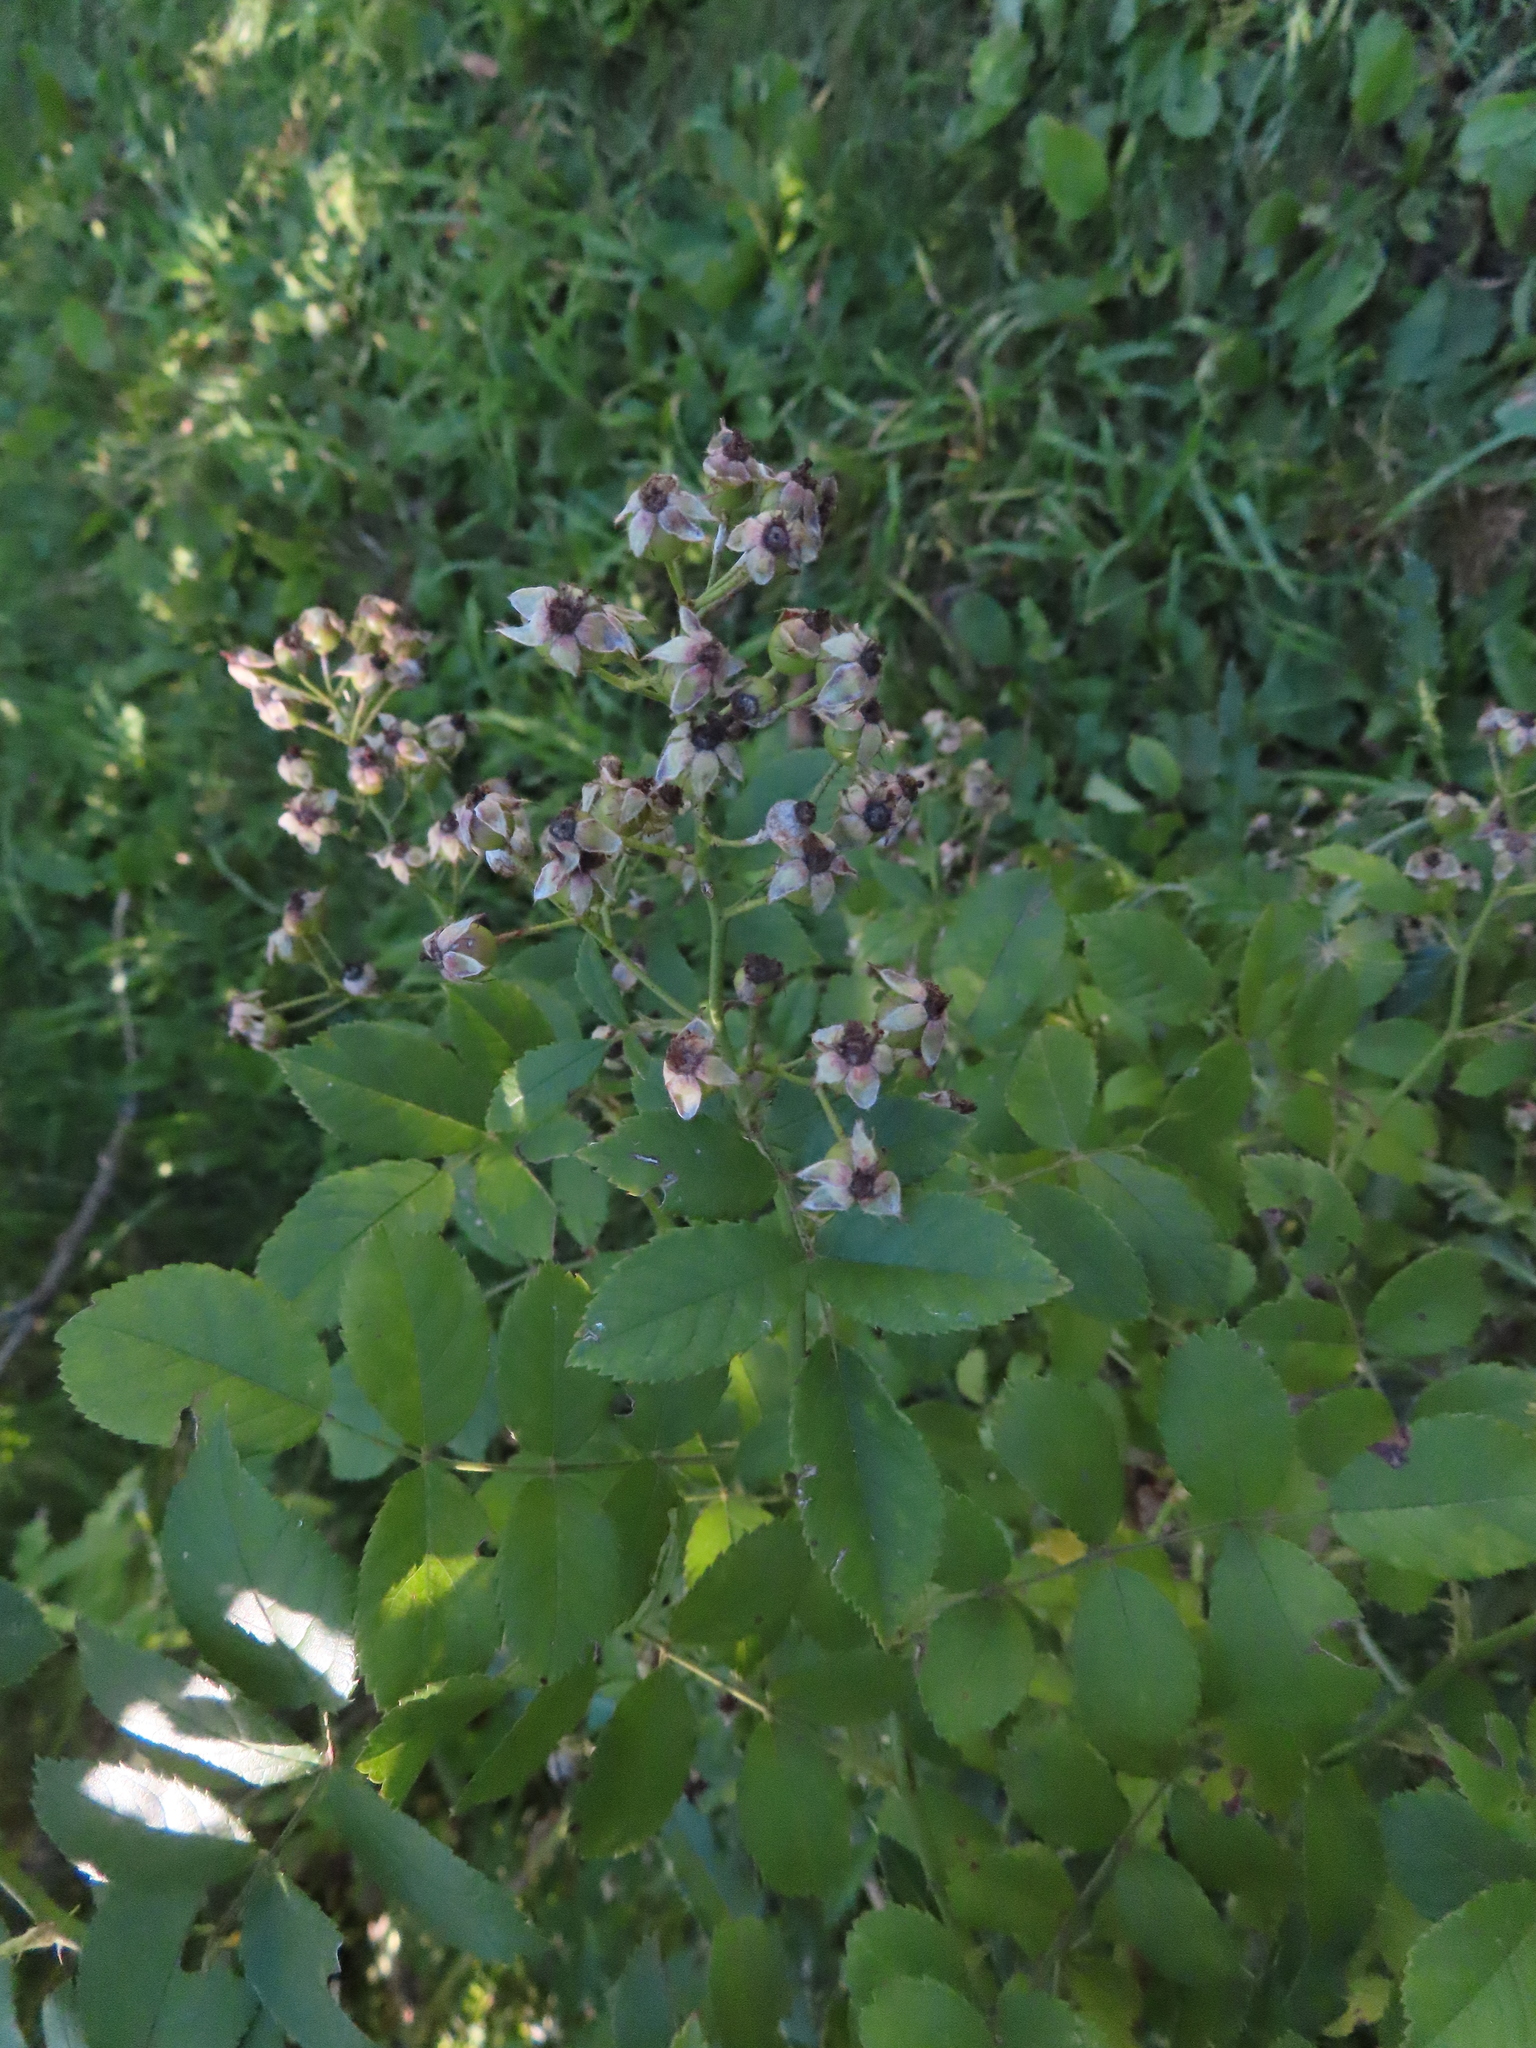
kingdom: Plantae
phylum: Tracheophyta
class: Magnoliopsida
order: Rosales
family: Rosaceae
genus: Rosa
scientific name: Rosa multiflora
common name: Multiflora rose
